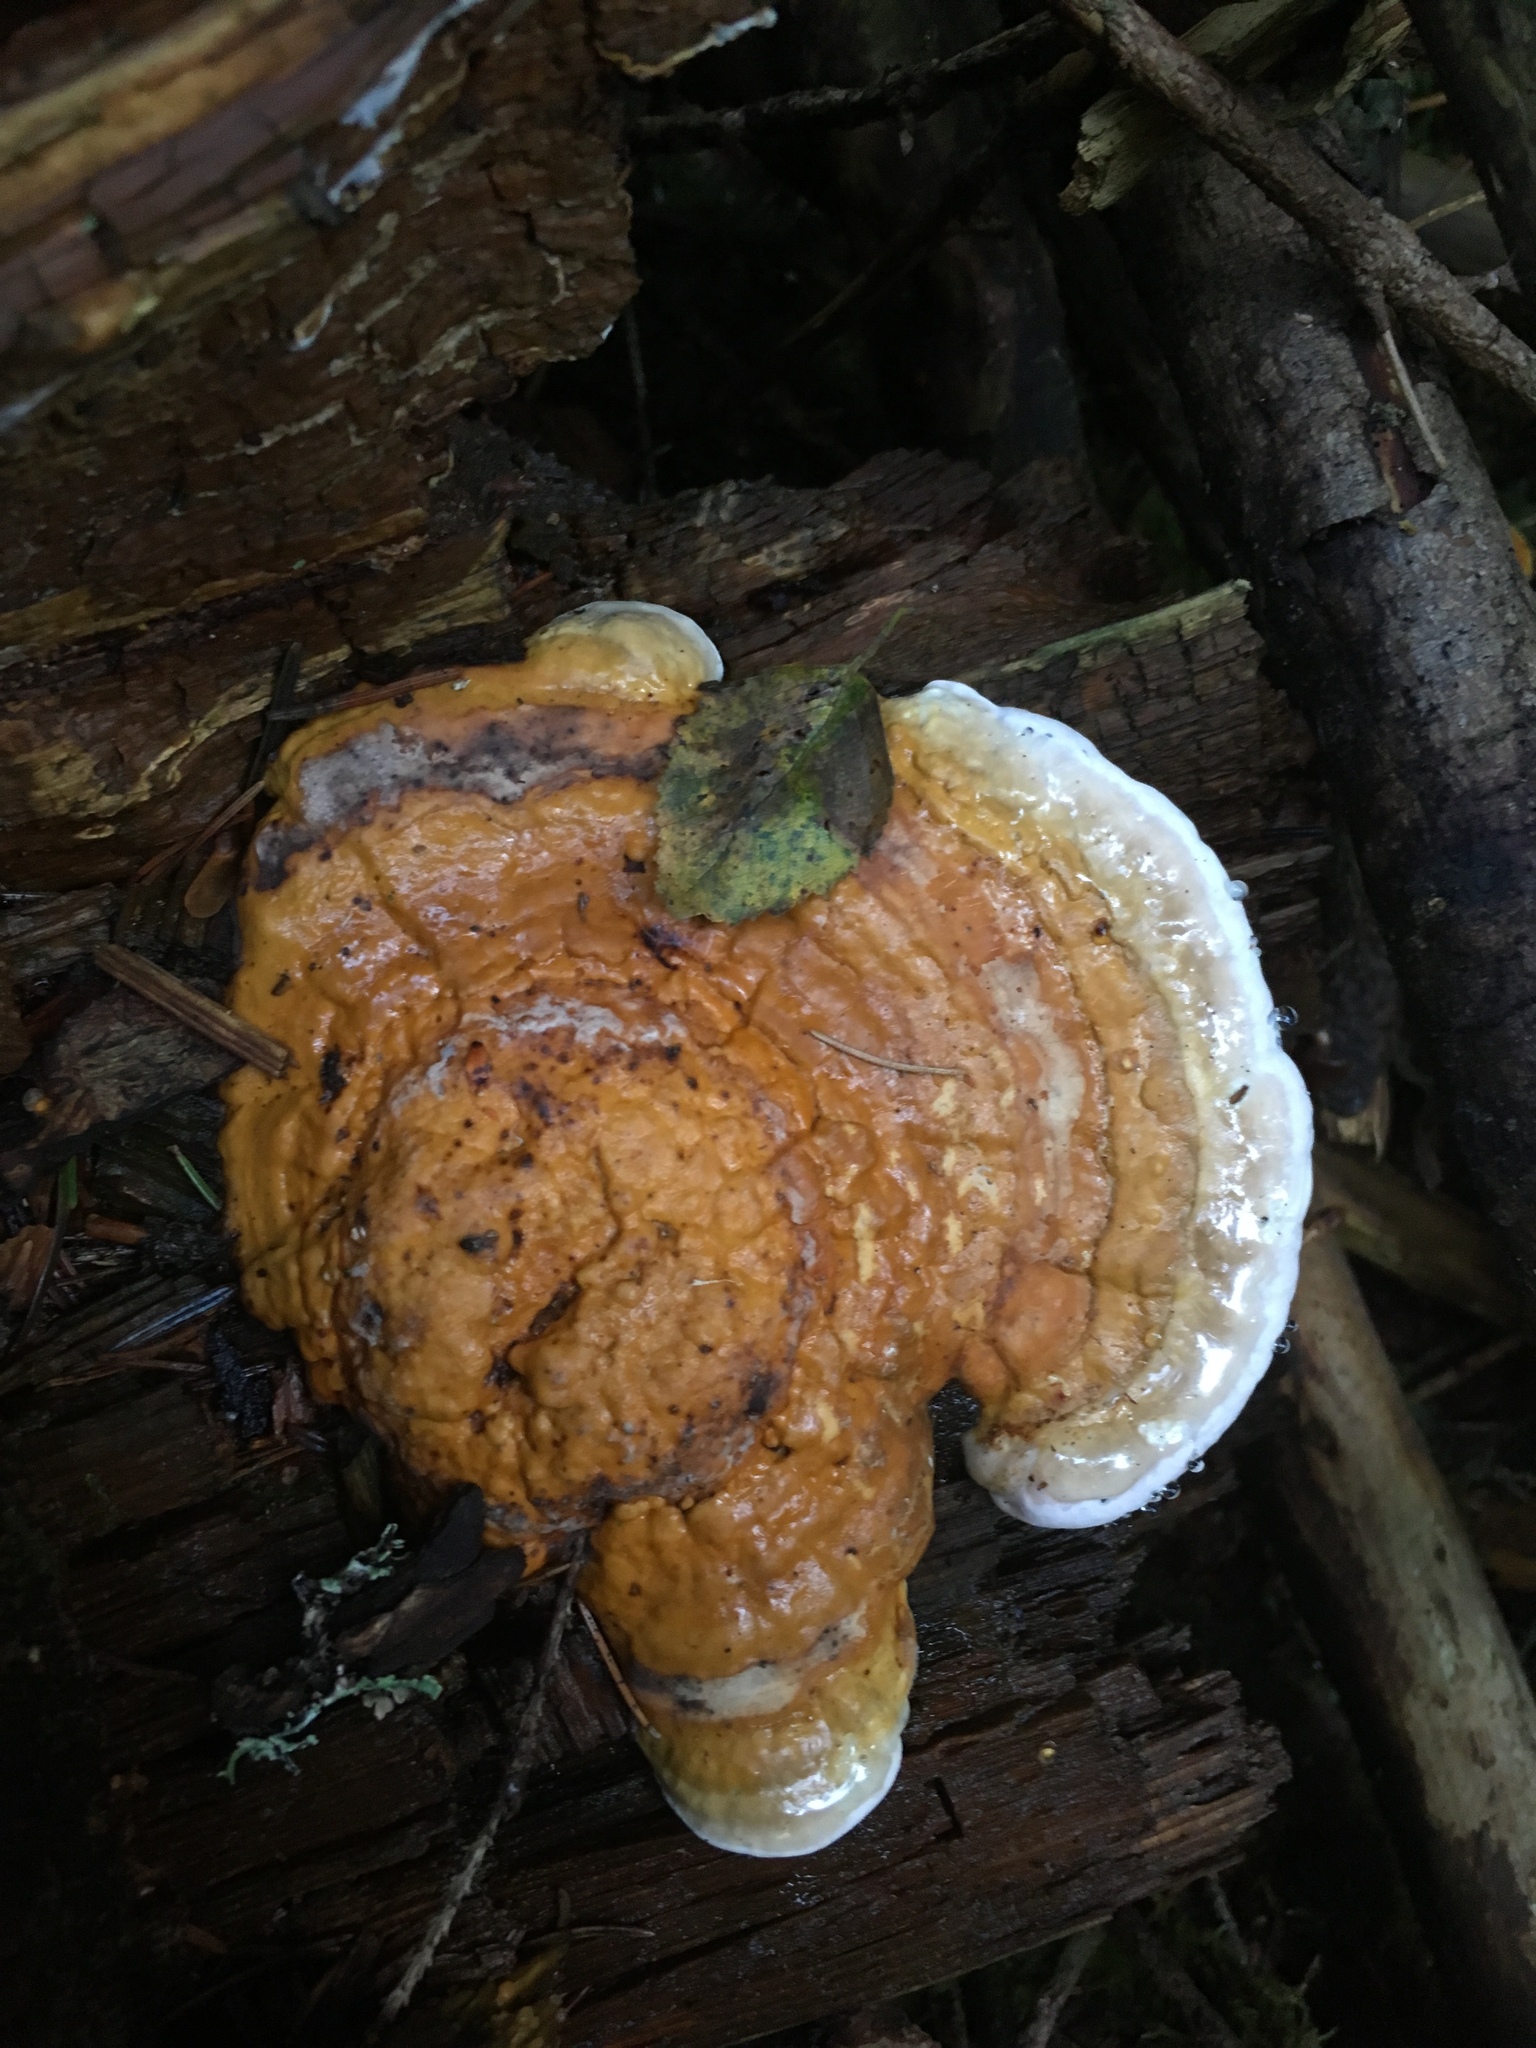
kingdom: Fungi
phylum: Basidiomycota
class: Agaricomycetes
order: Polyporales
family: Fomitopsidaceae
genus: Fomitopsis
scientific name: Fomitopsis pinicola
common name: Red-belted bracket
